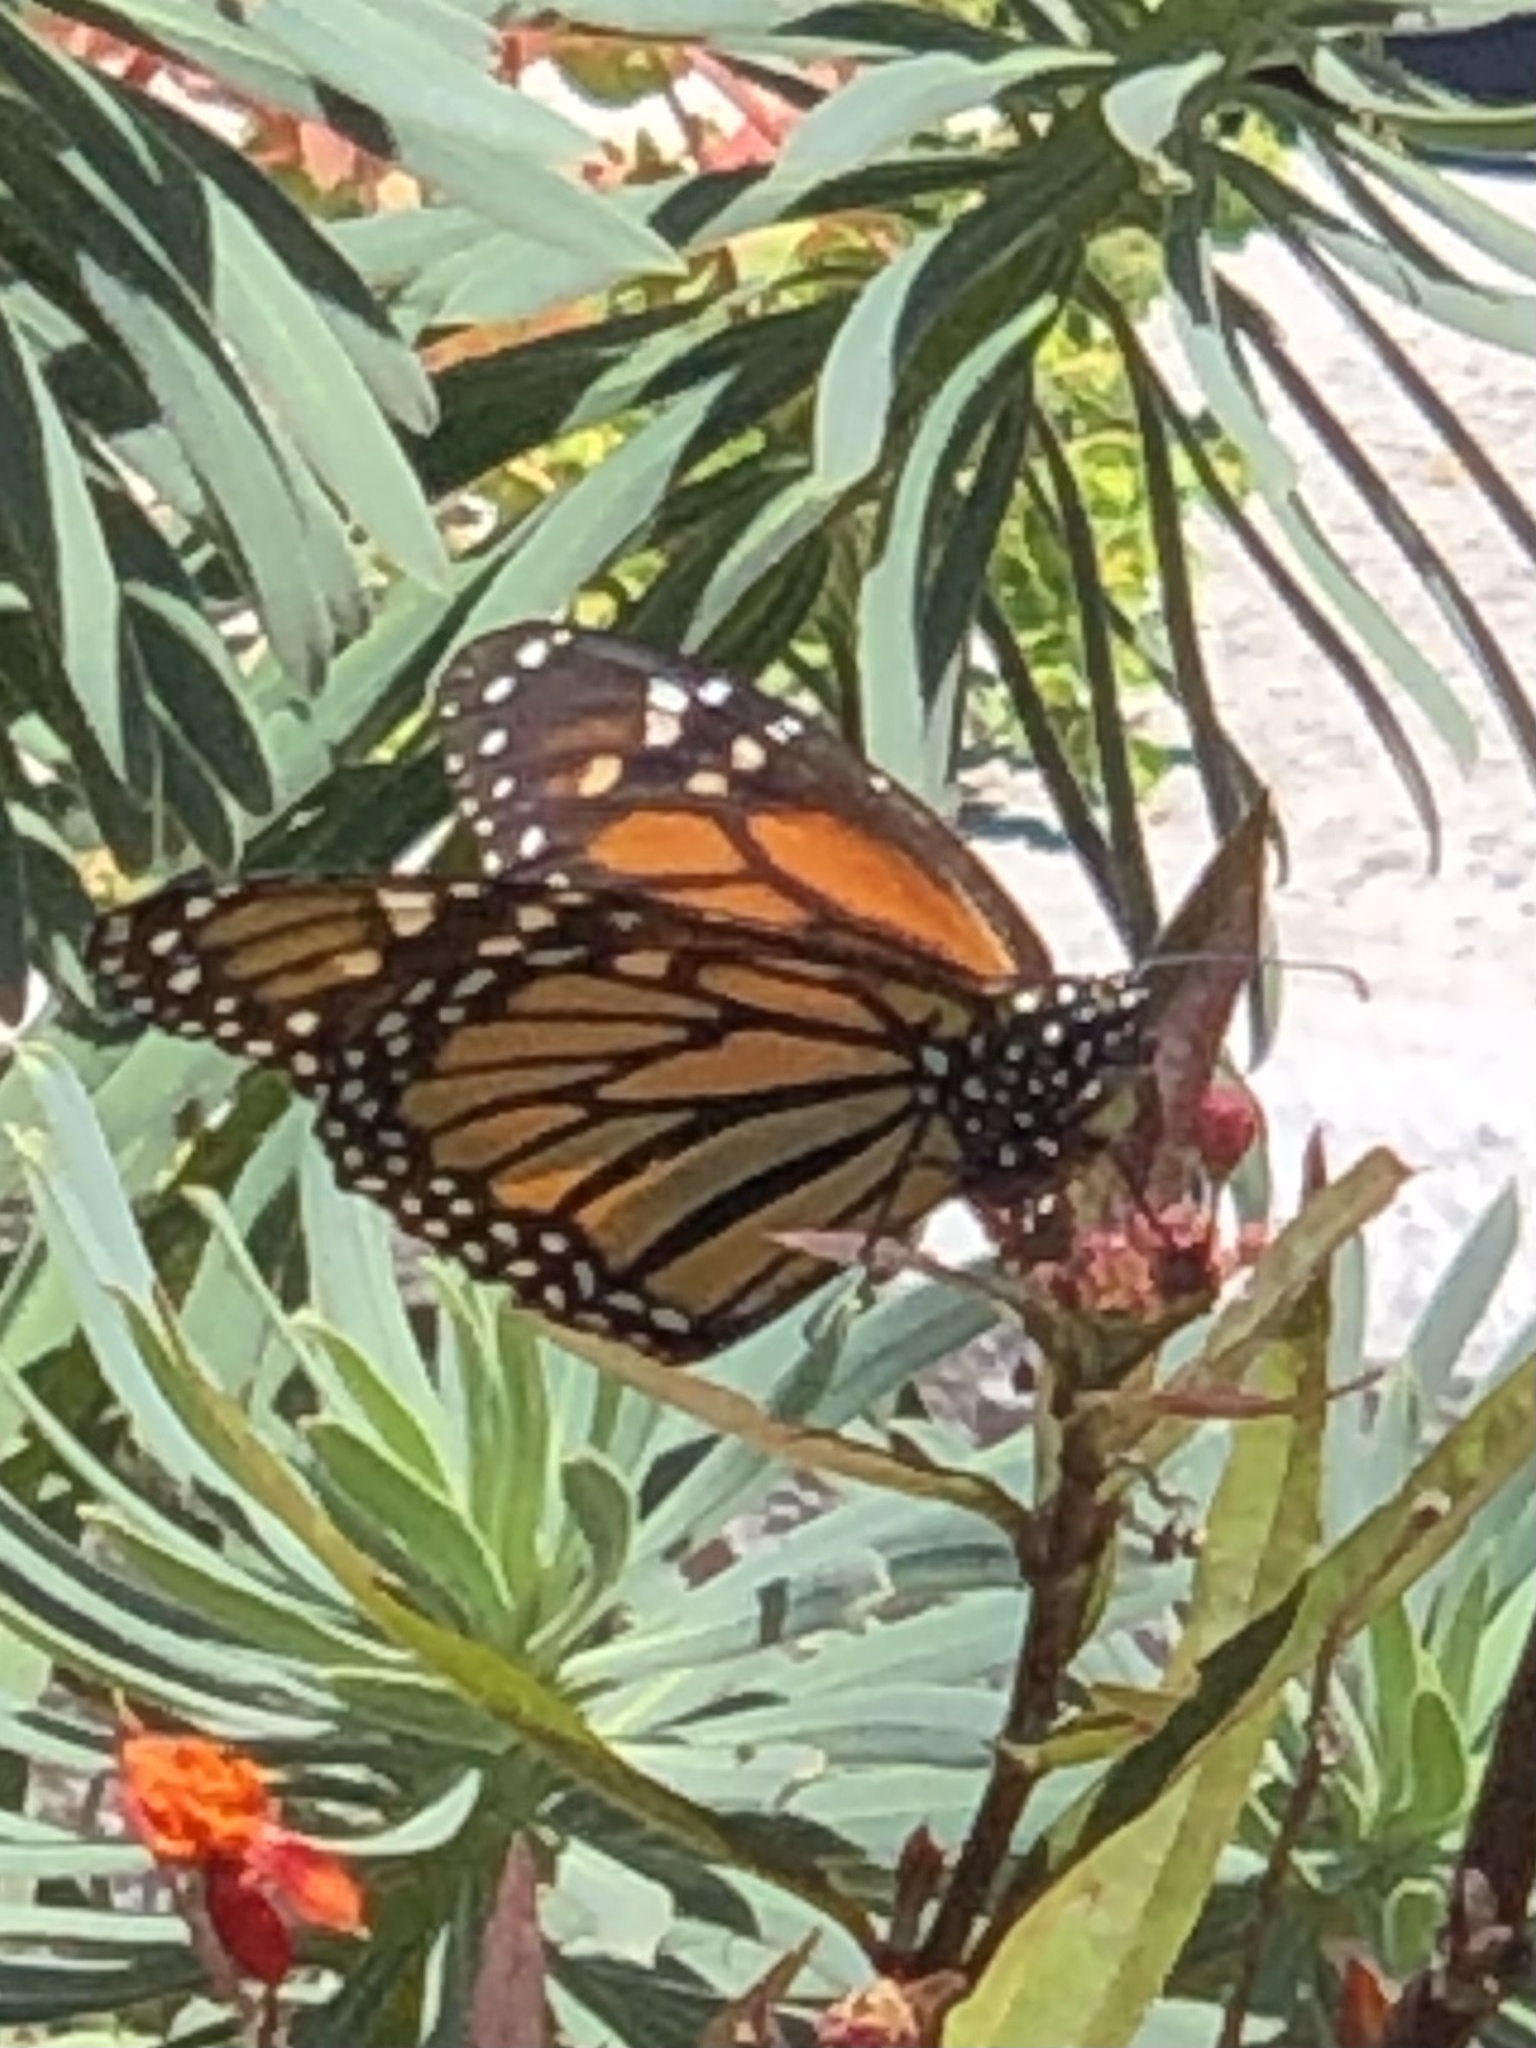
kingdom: Animalia
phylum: Arthropoda
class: Insecta
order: Lepidoptera
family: Nymphalidae
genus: Danaus
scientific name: Danaus plexippus
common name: Monarch
